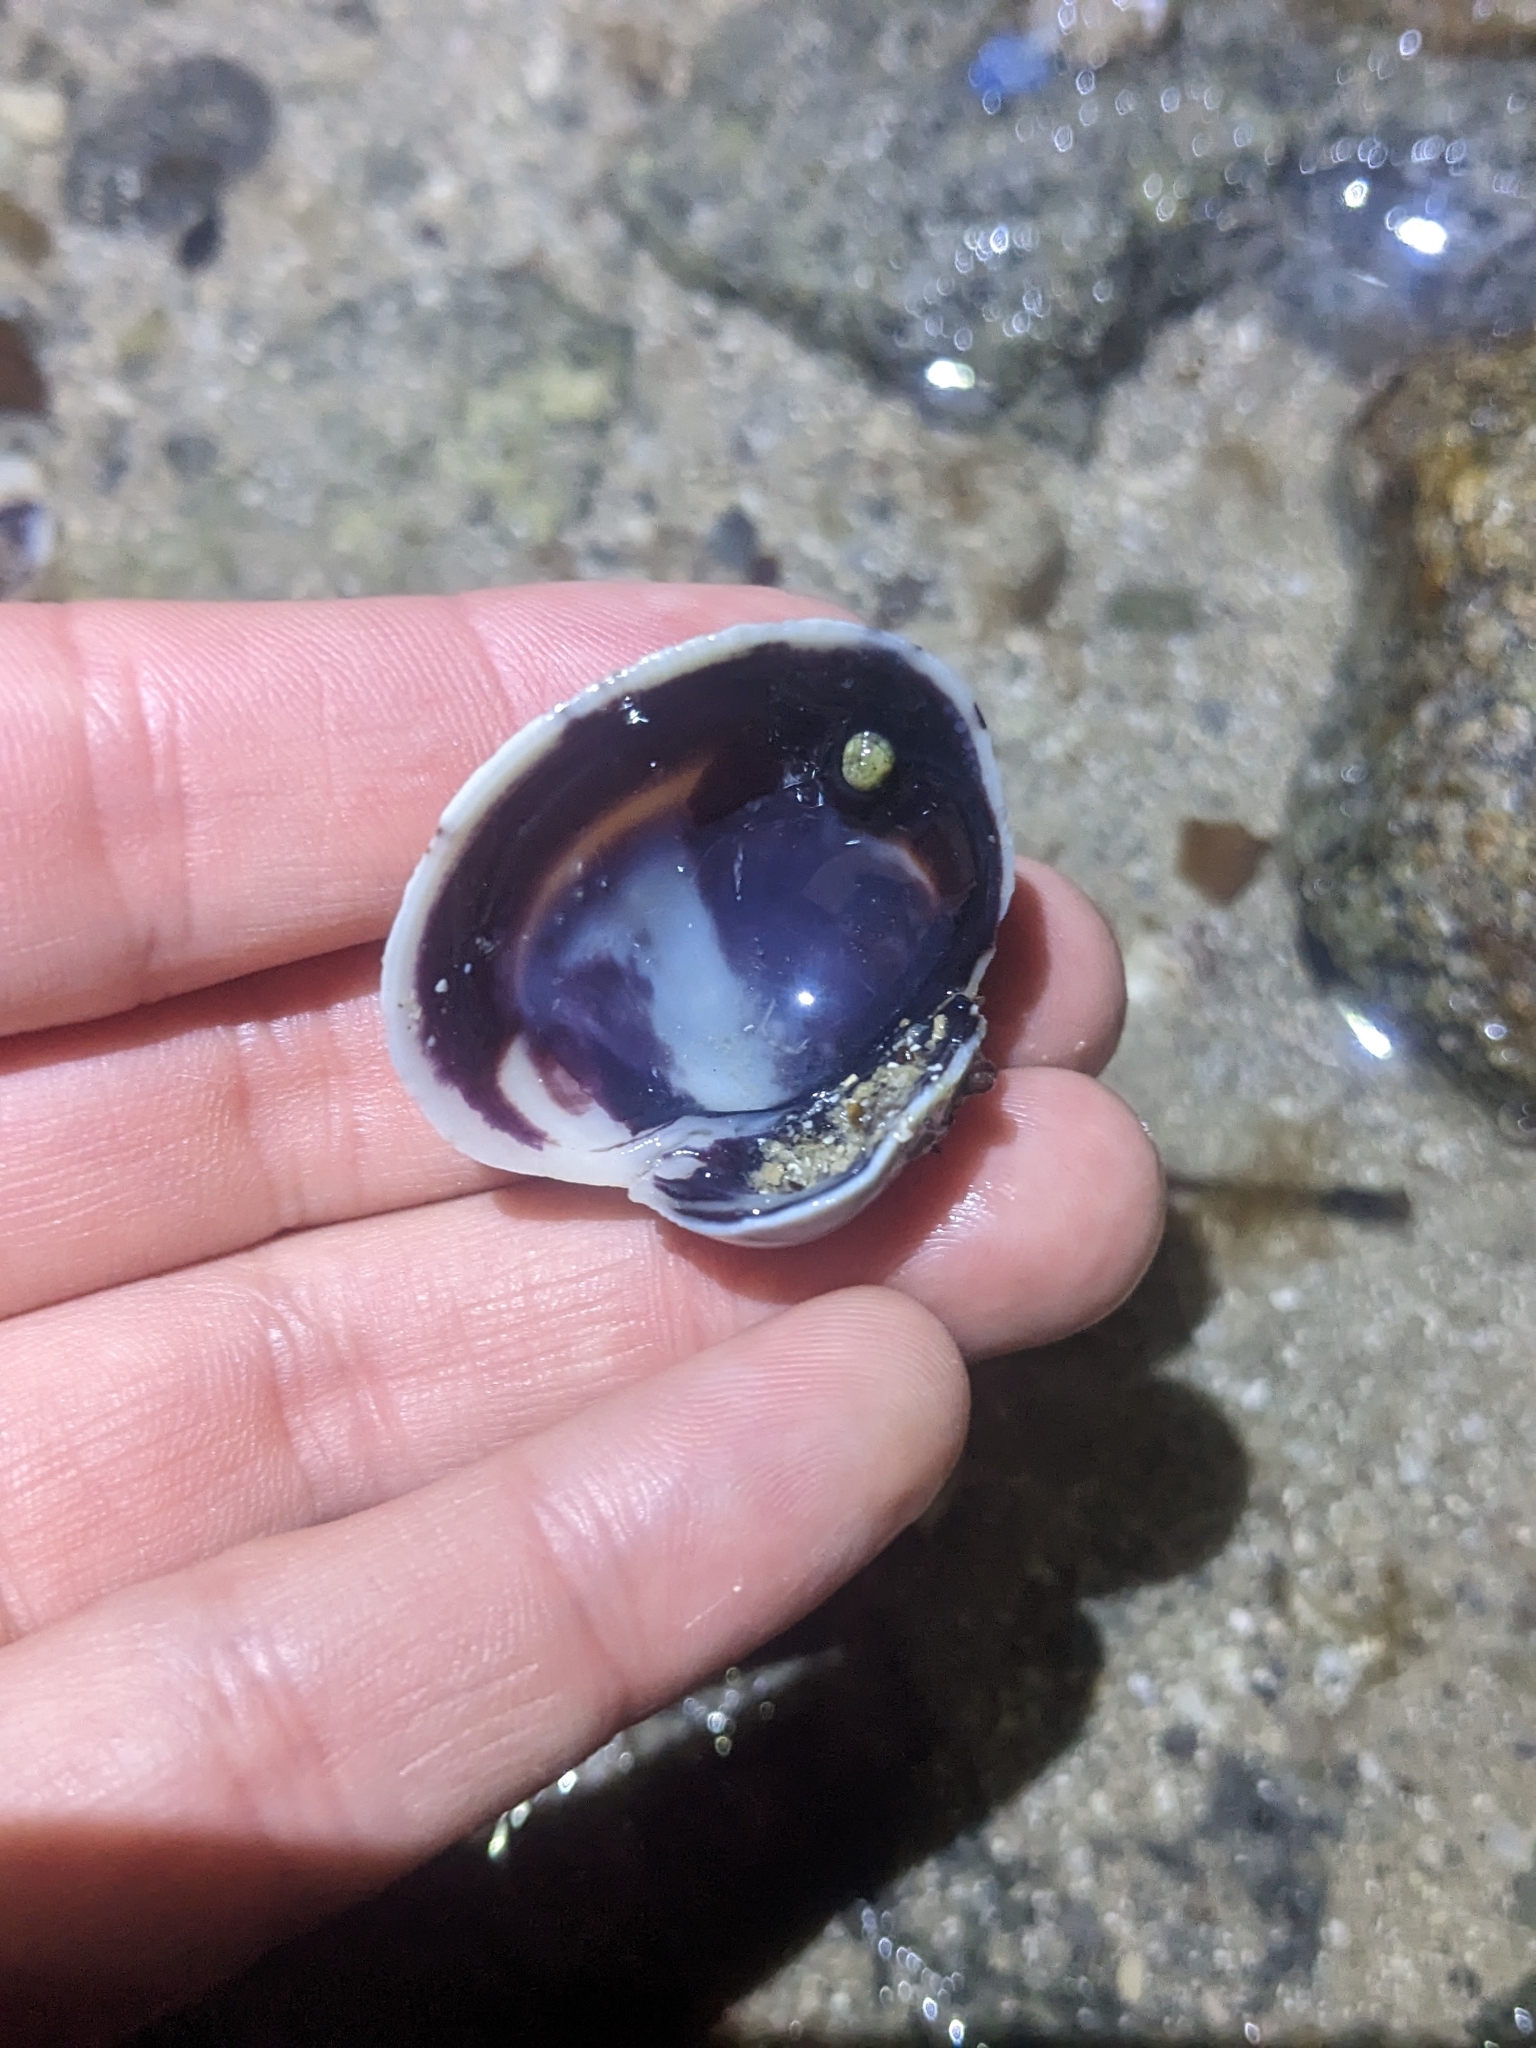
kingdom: Animalia
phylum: Mollusca
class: Bivalvia
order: Venerida
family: Veneridae
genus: Leukoma
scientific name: Leukoma grata
